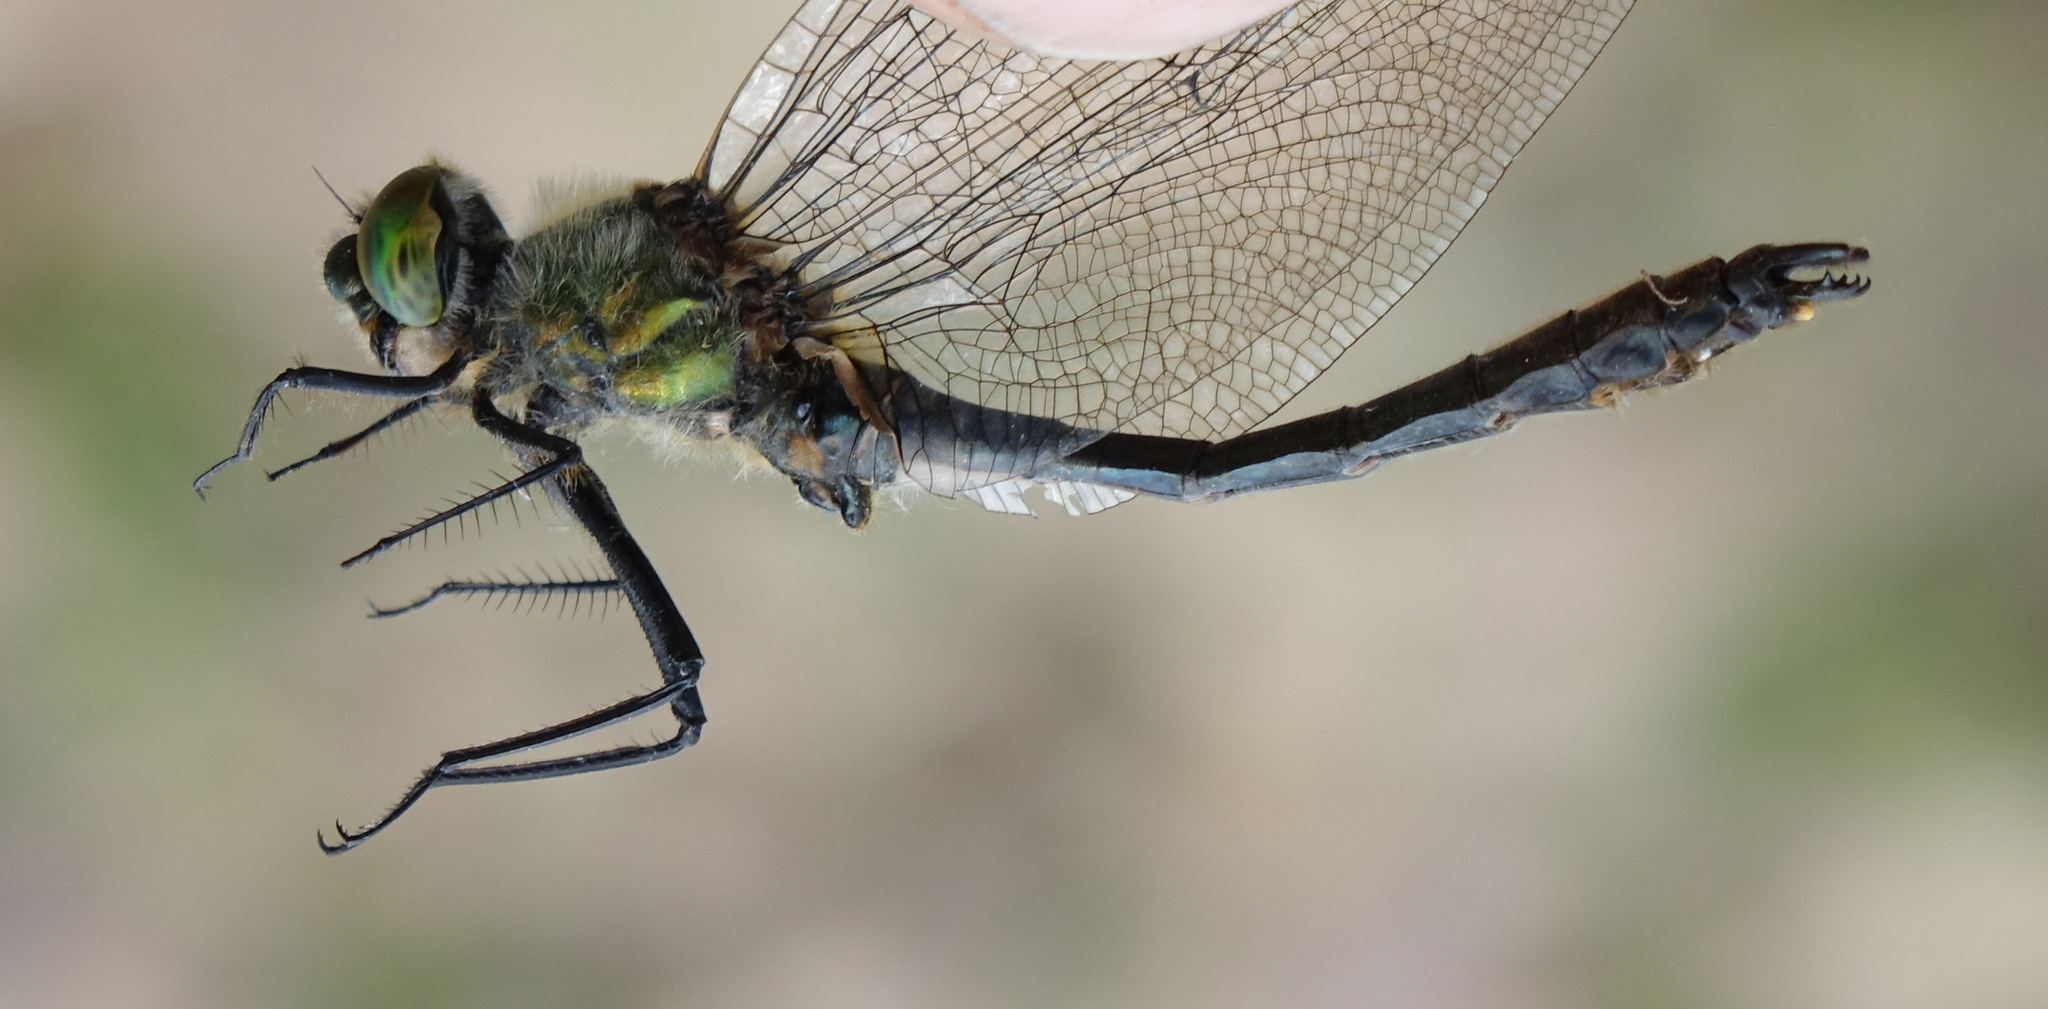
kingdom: Animalia
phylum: Arthropoda
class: Insecta
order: Odonata
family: Corduliidae
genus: Cordulia
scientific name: Cordulia aenea
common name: Downy emerald
